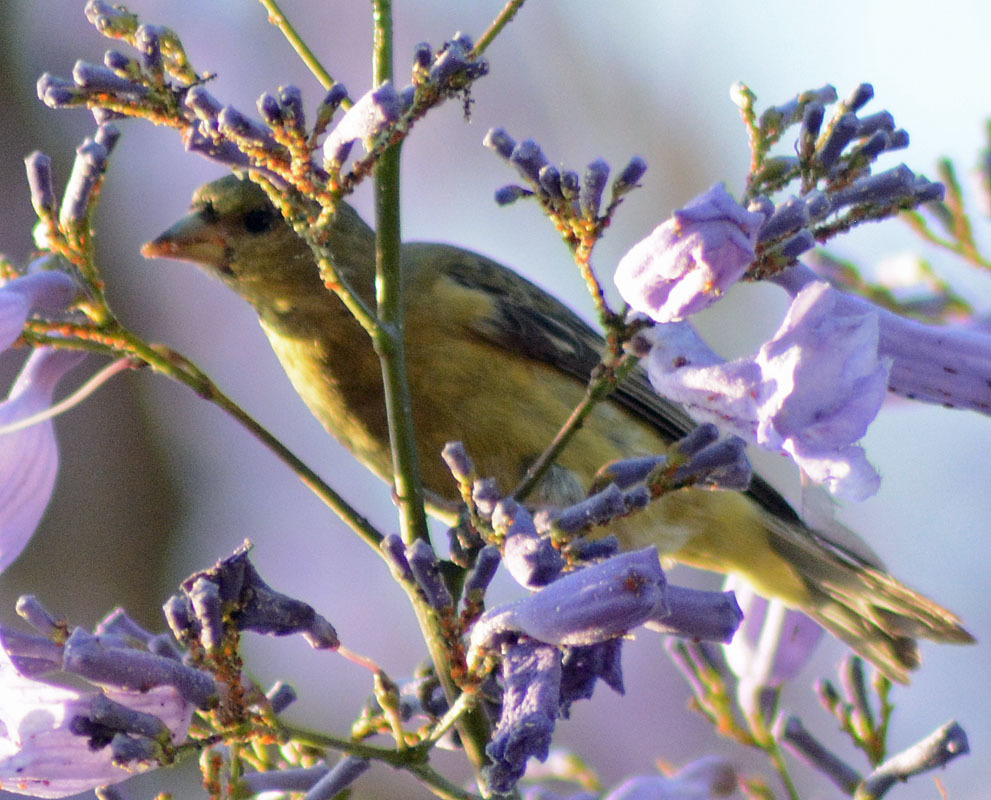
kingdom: Animalia
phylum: Chordata
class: Aves
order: Passeriformes
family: Fringillidae
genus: Spinus
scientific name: Spinus psaltria
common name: Lesser goldfinch
